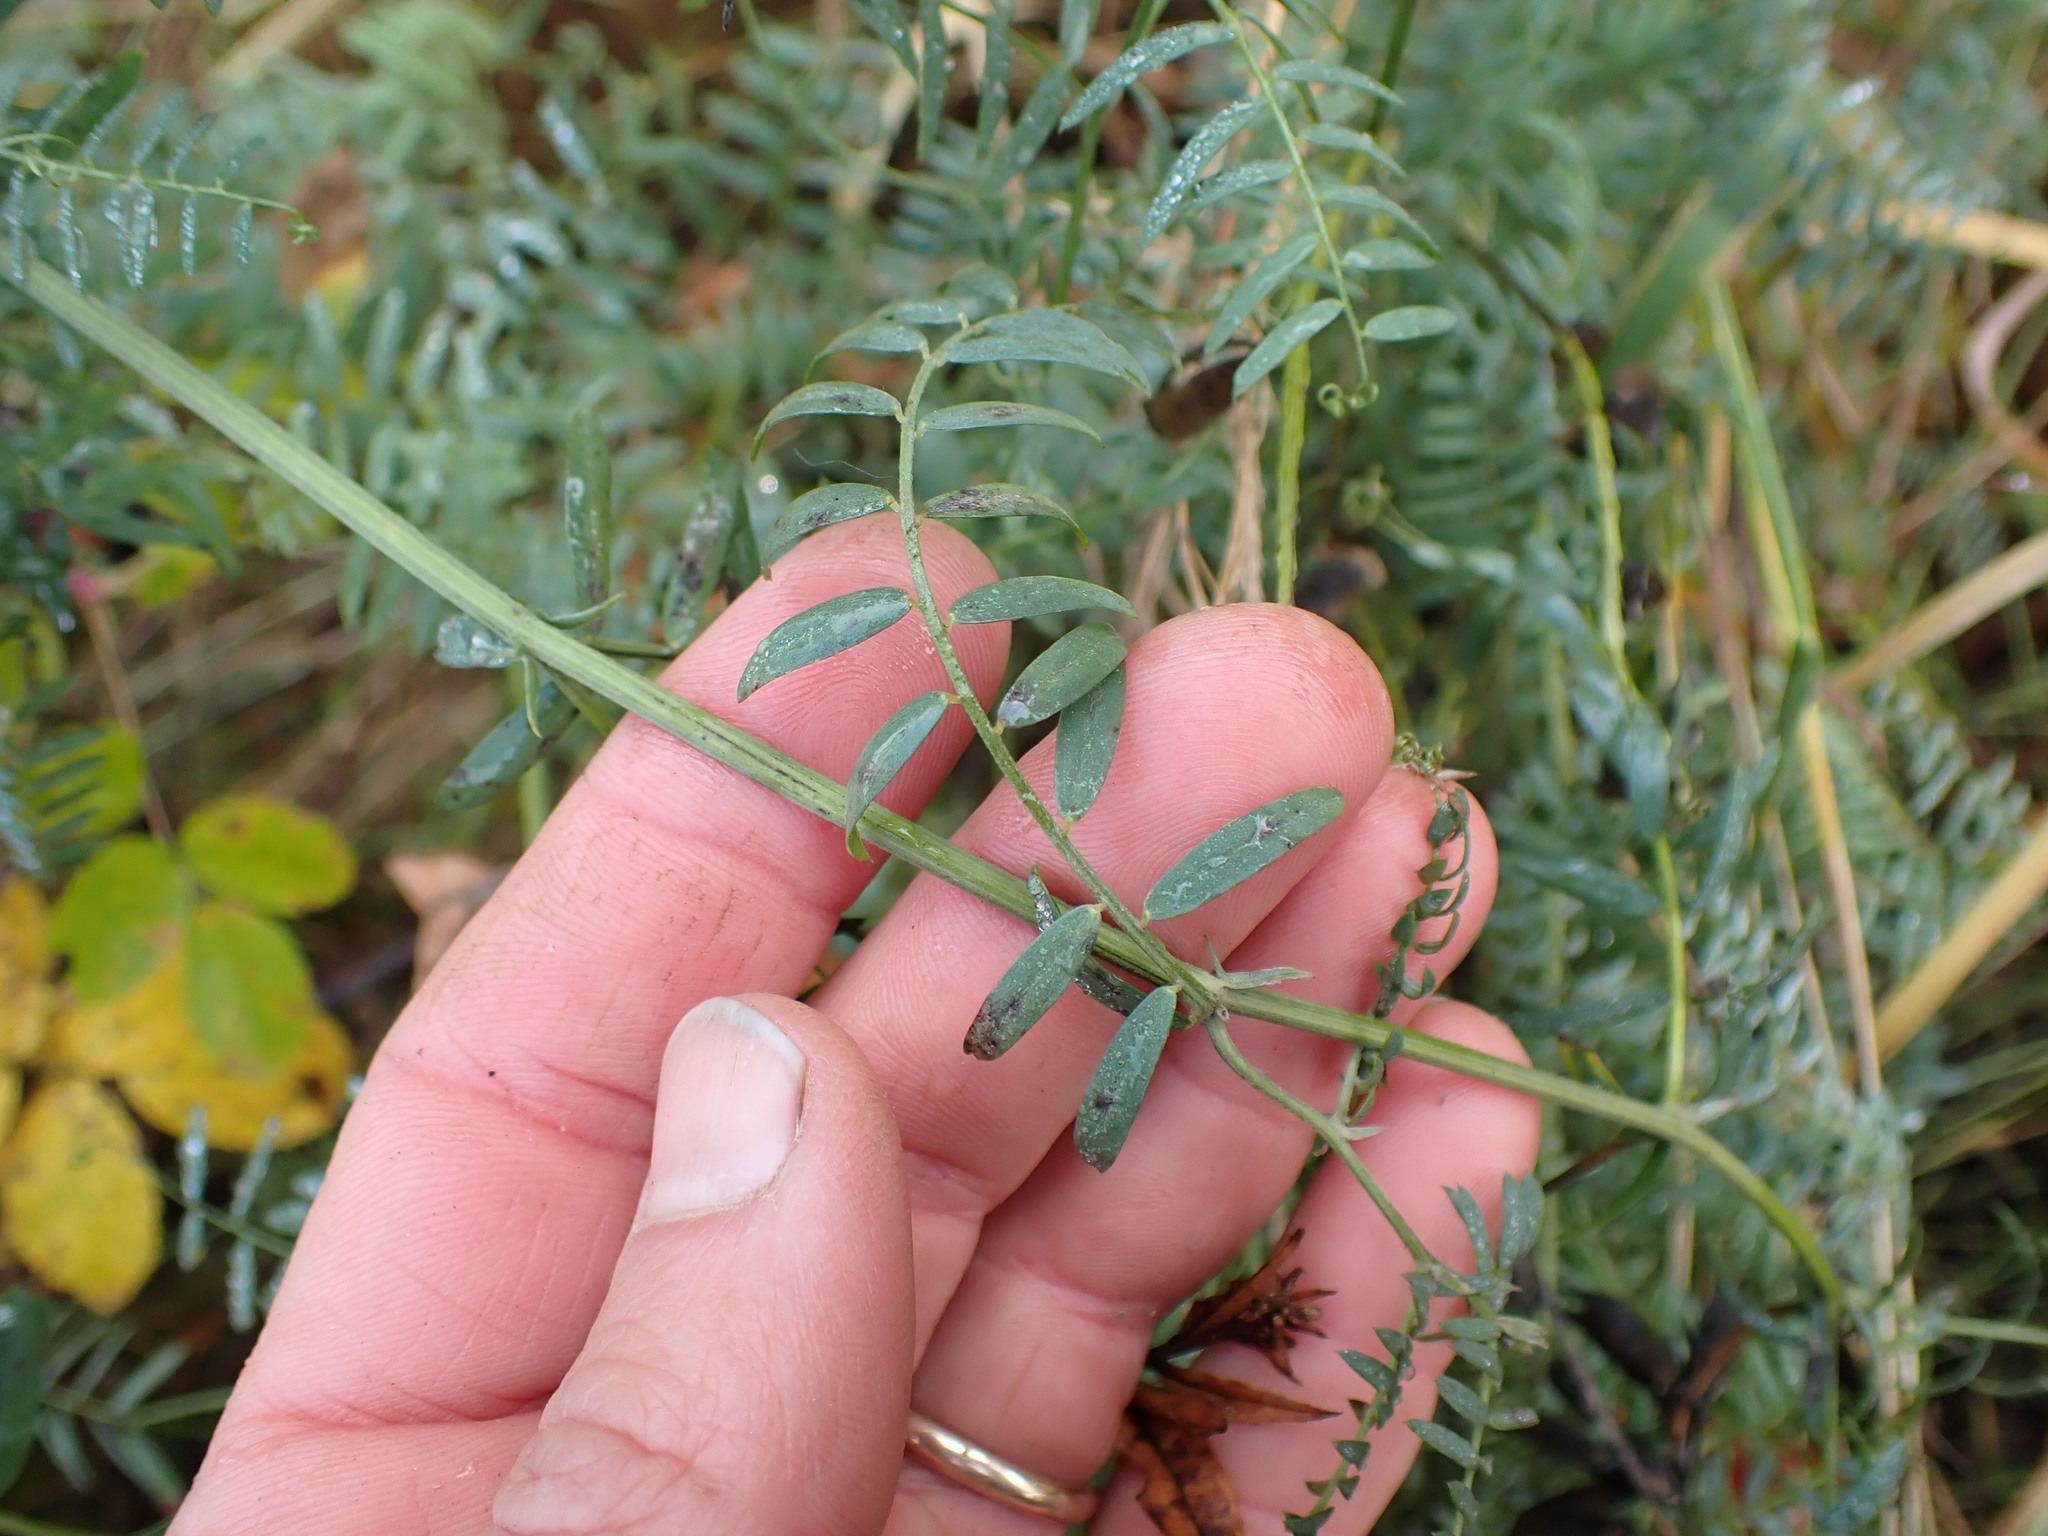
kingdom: Plantae
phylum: Tracheophyta
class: Magnoliopsida
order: Fabales
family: Fabaceae
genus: Vicia
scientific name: Vicia cracca
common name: Bird vetch
